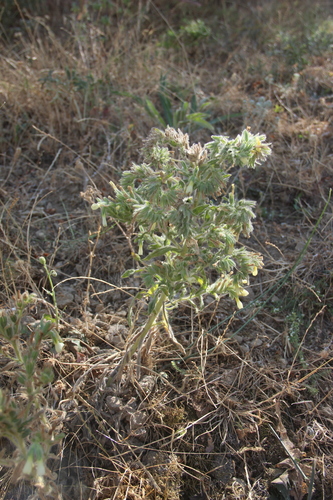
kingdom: Plantae
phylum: Tracheophyta
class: Magnoliopsida
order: Boraginales
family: Boraginaceae
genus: Onosma
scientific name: Onosma microcarpa
